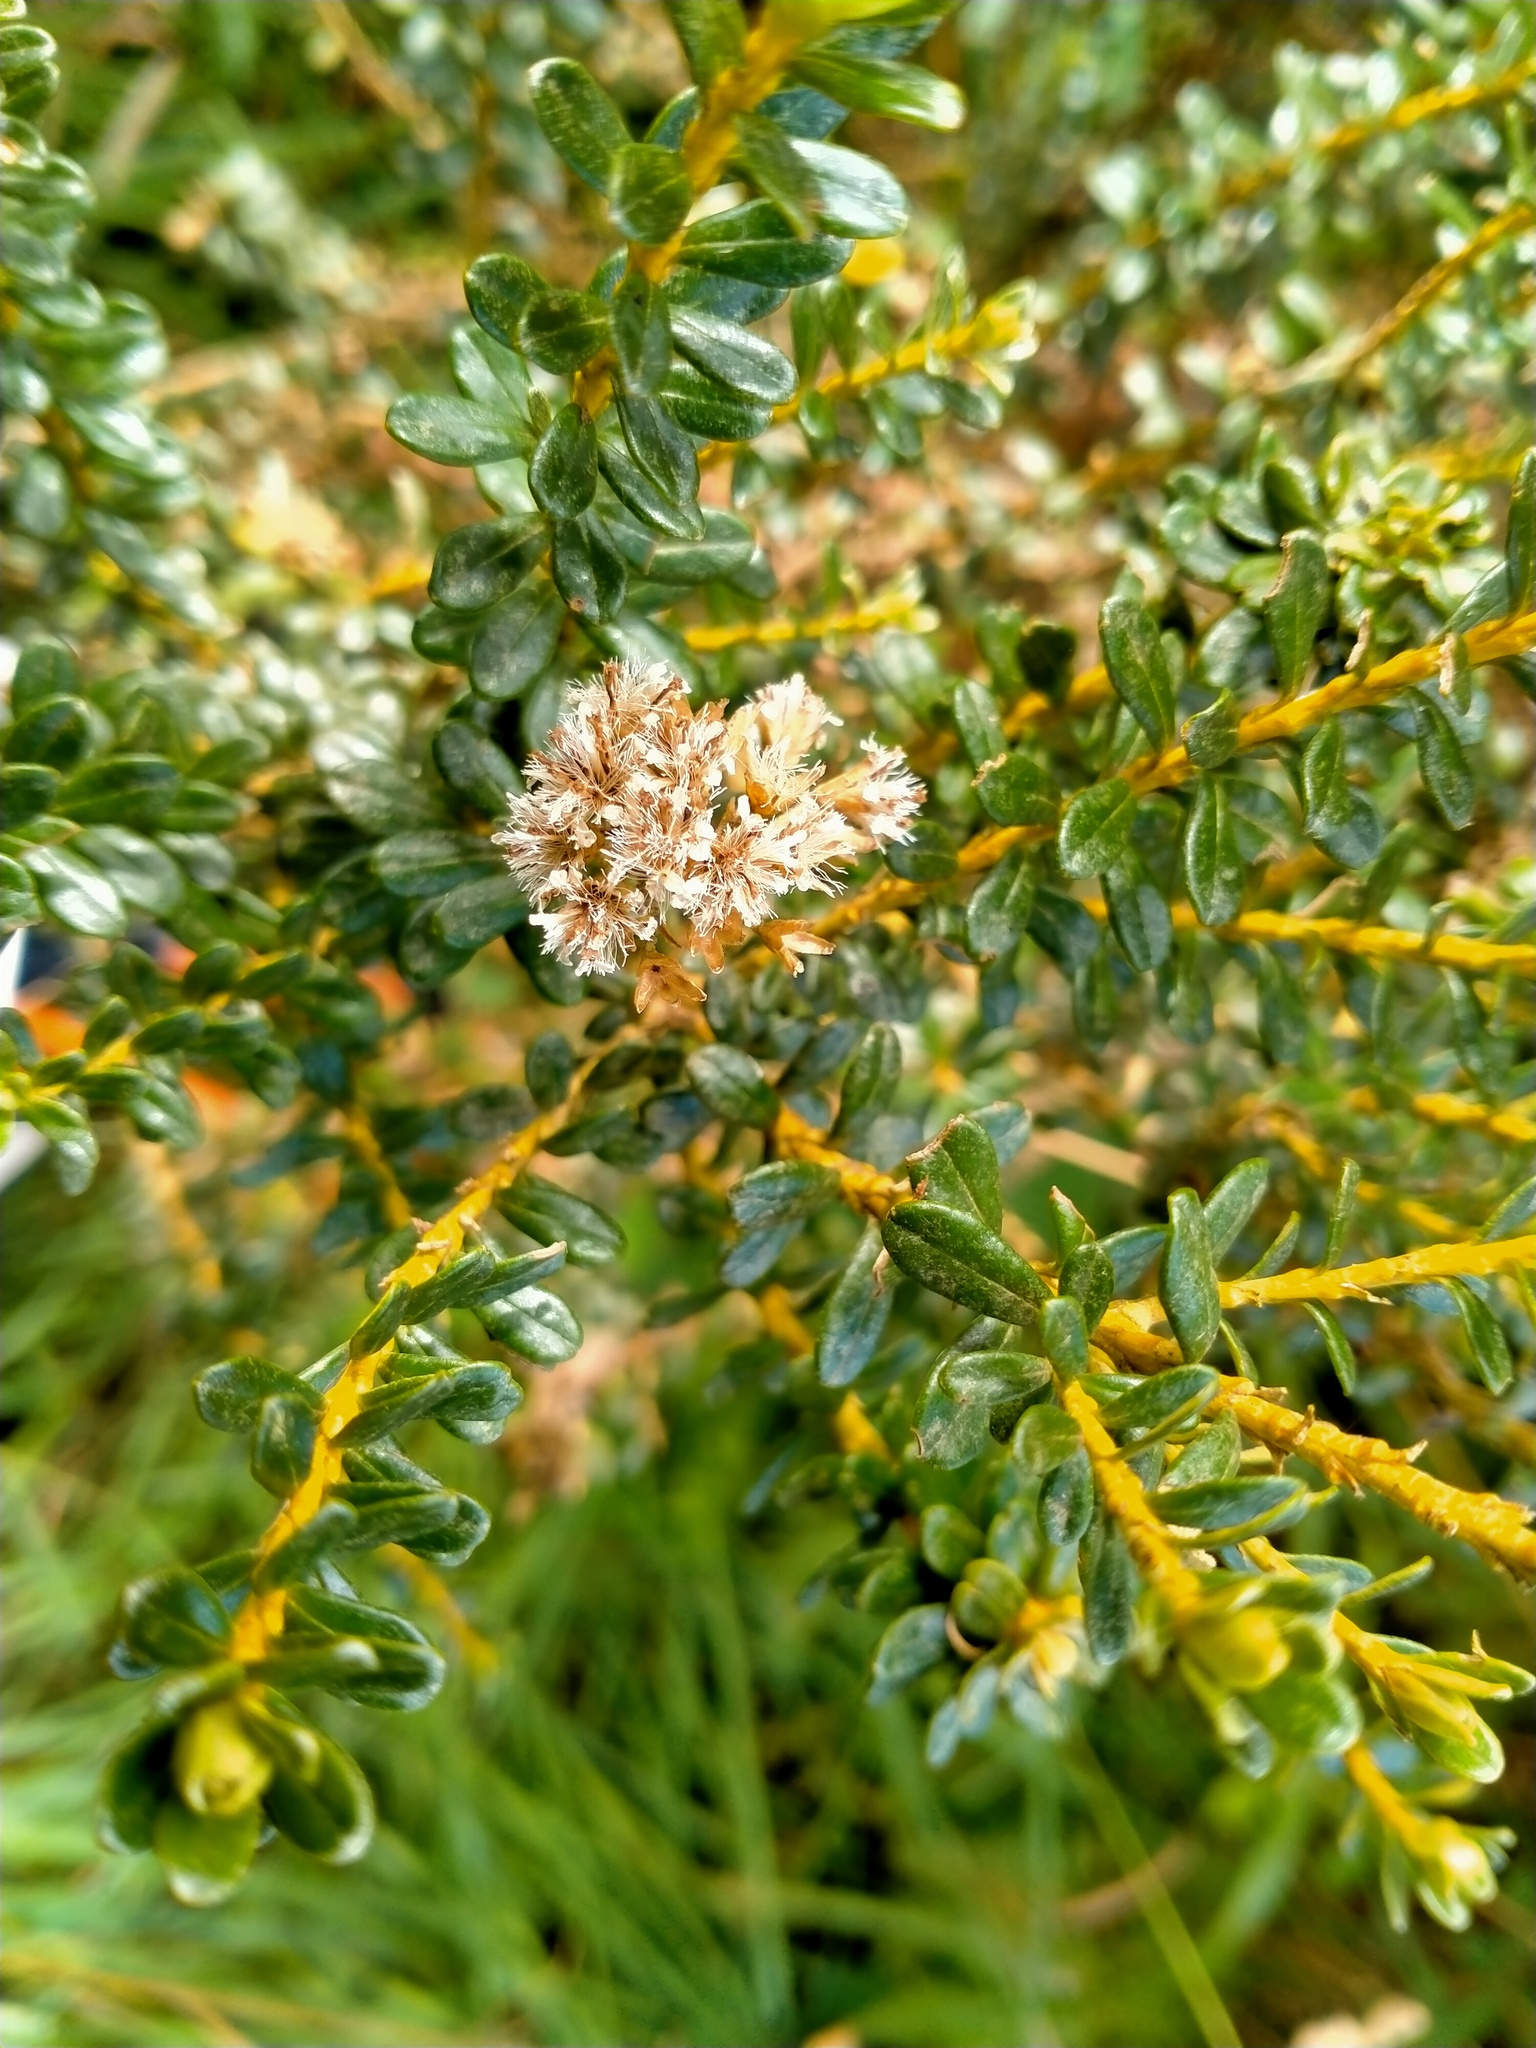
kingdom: Plantae
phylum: Tracheophyta
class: Magnoliopsida
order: Asterales
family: Asteraceae
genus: Ozothamnus
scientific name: Ozothamnus leptophyllus
